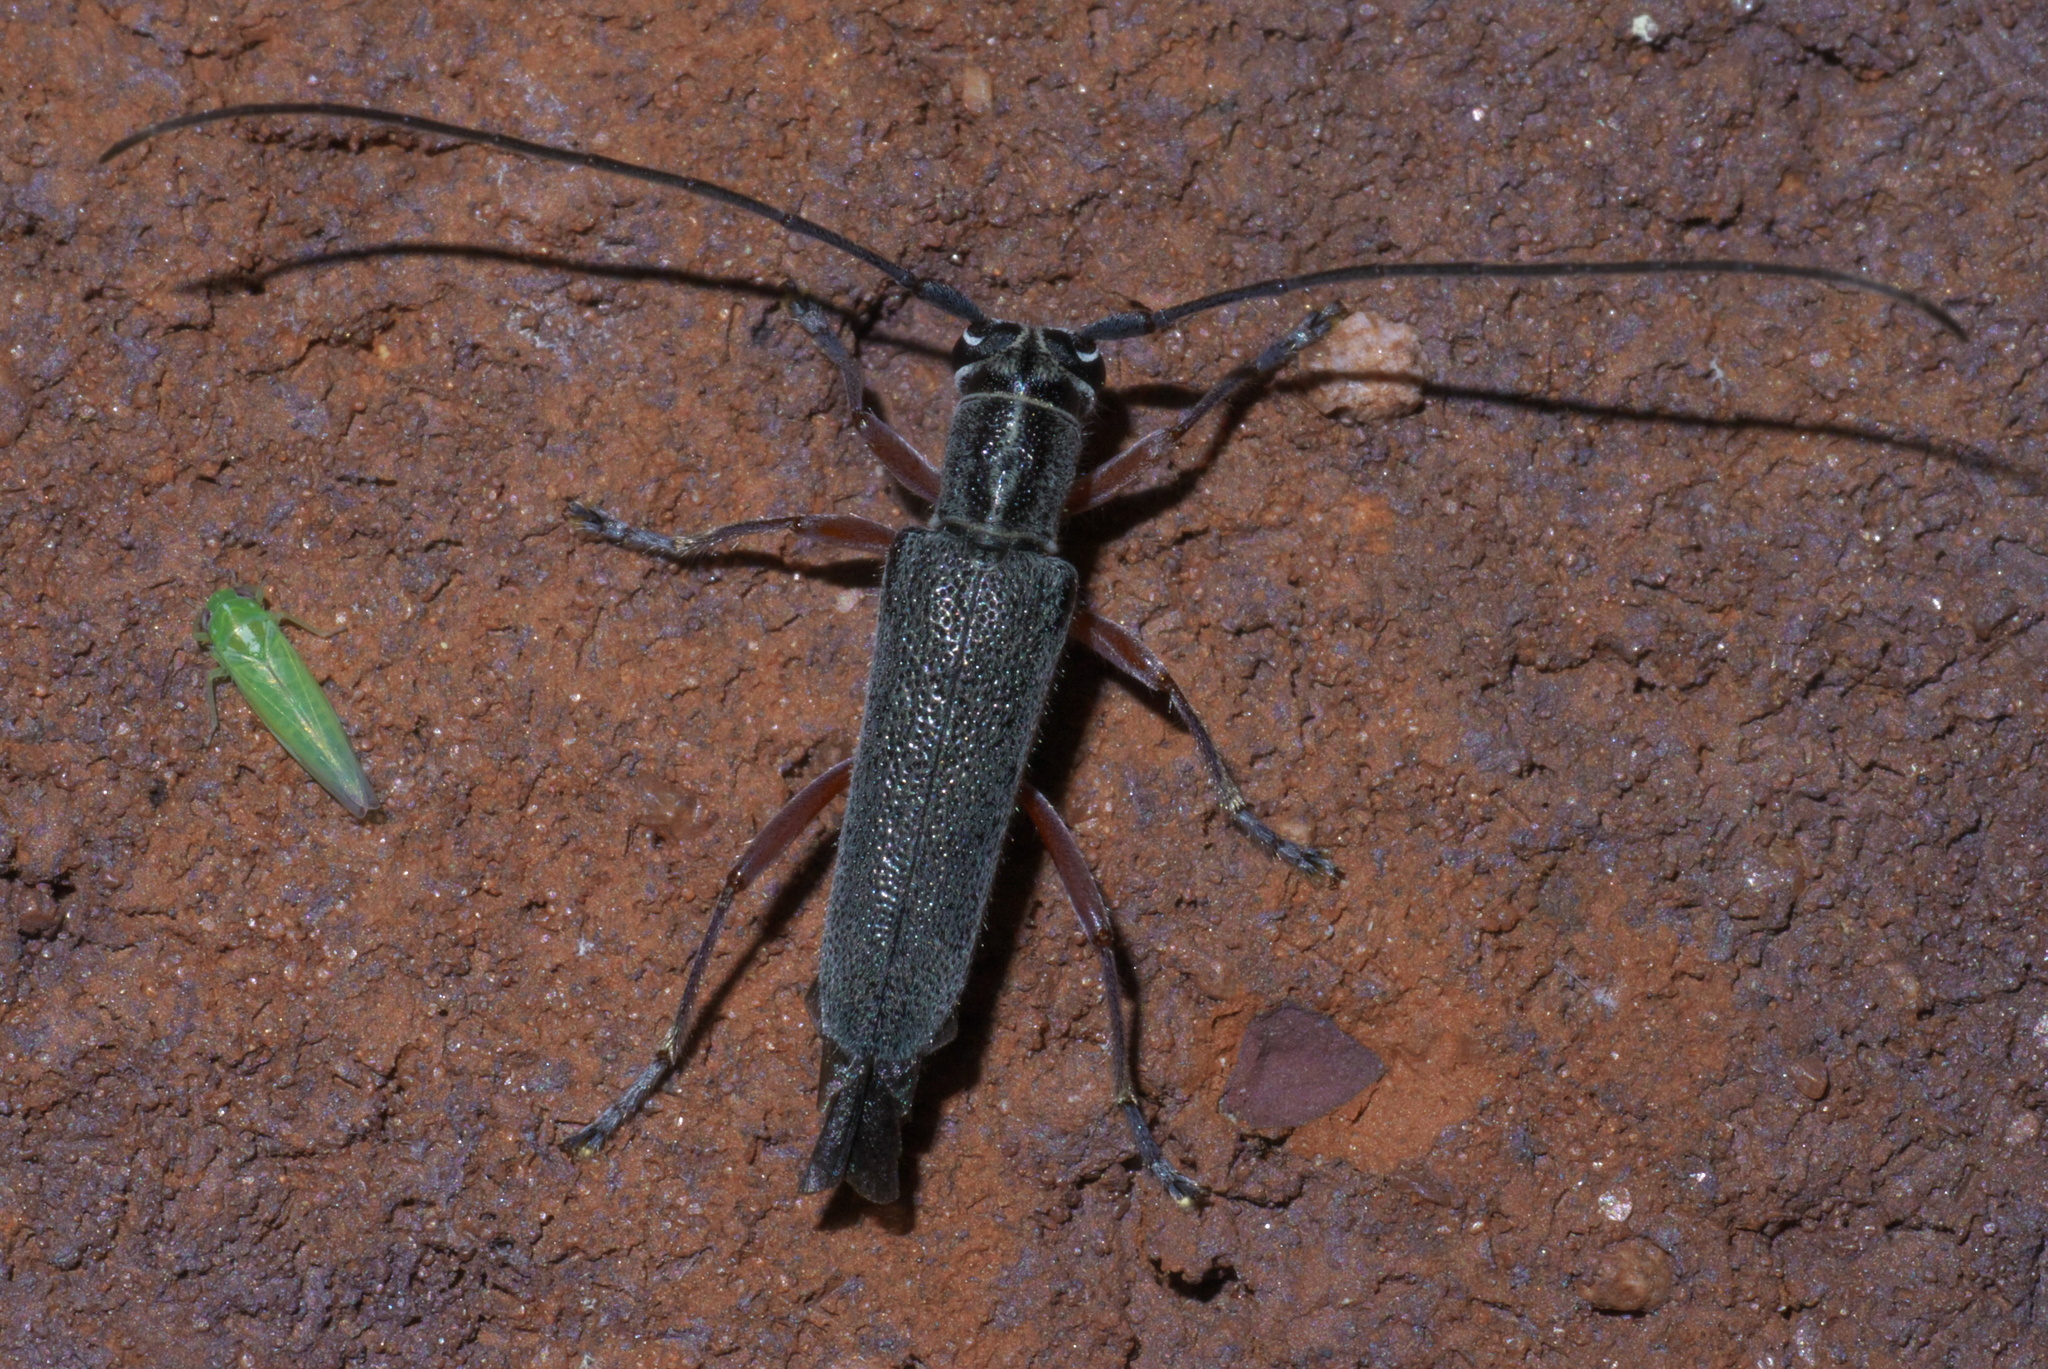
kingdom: Animalia
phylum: Arthropoda
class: Insecta
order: Coleoptera
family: Cerambycidae
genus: Saperda
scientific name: Saperda discoidea
